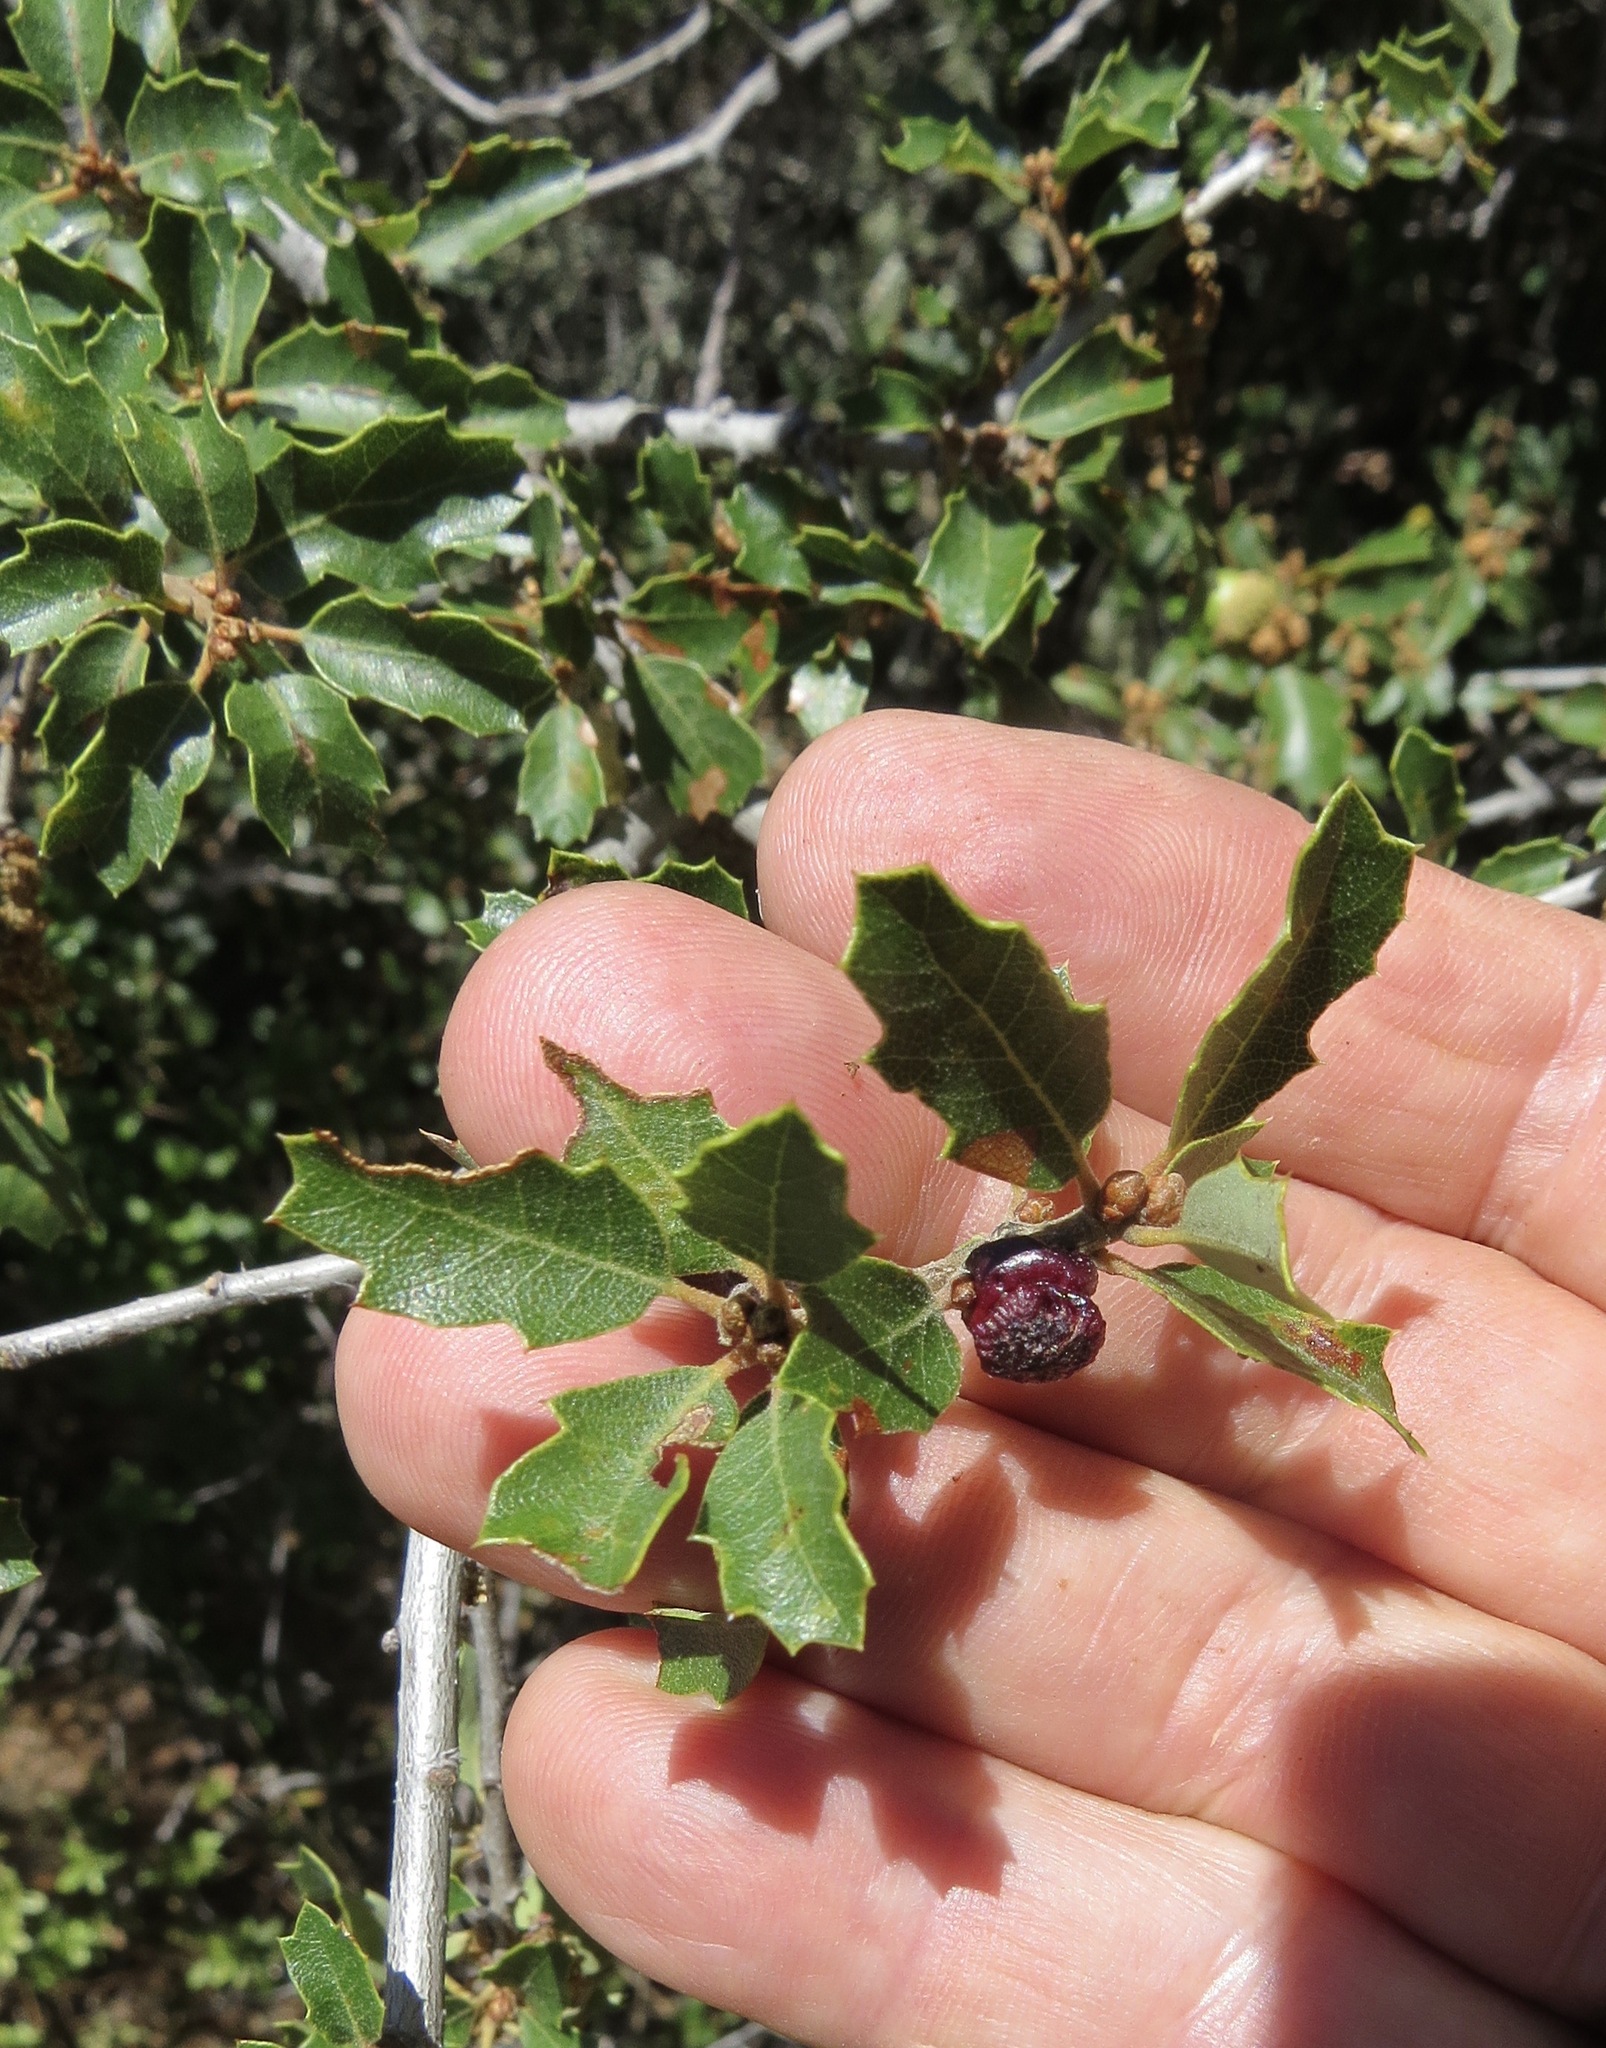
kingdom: Animalia
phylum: Arthropoda
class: Insecta
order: Hymenoptera
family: Cynipidae
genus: Disholcaspis
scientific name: Disholcaspis prehensa
